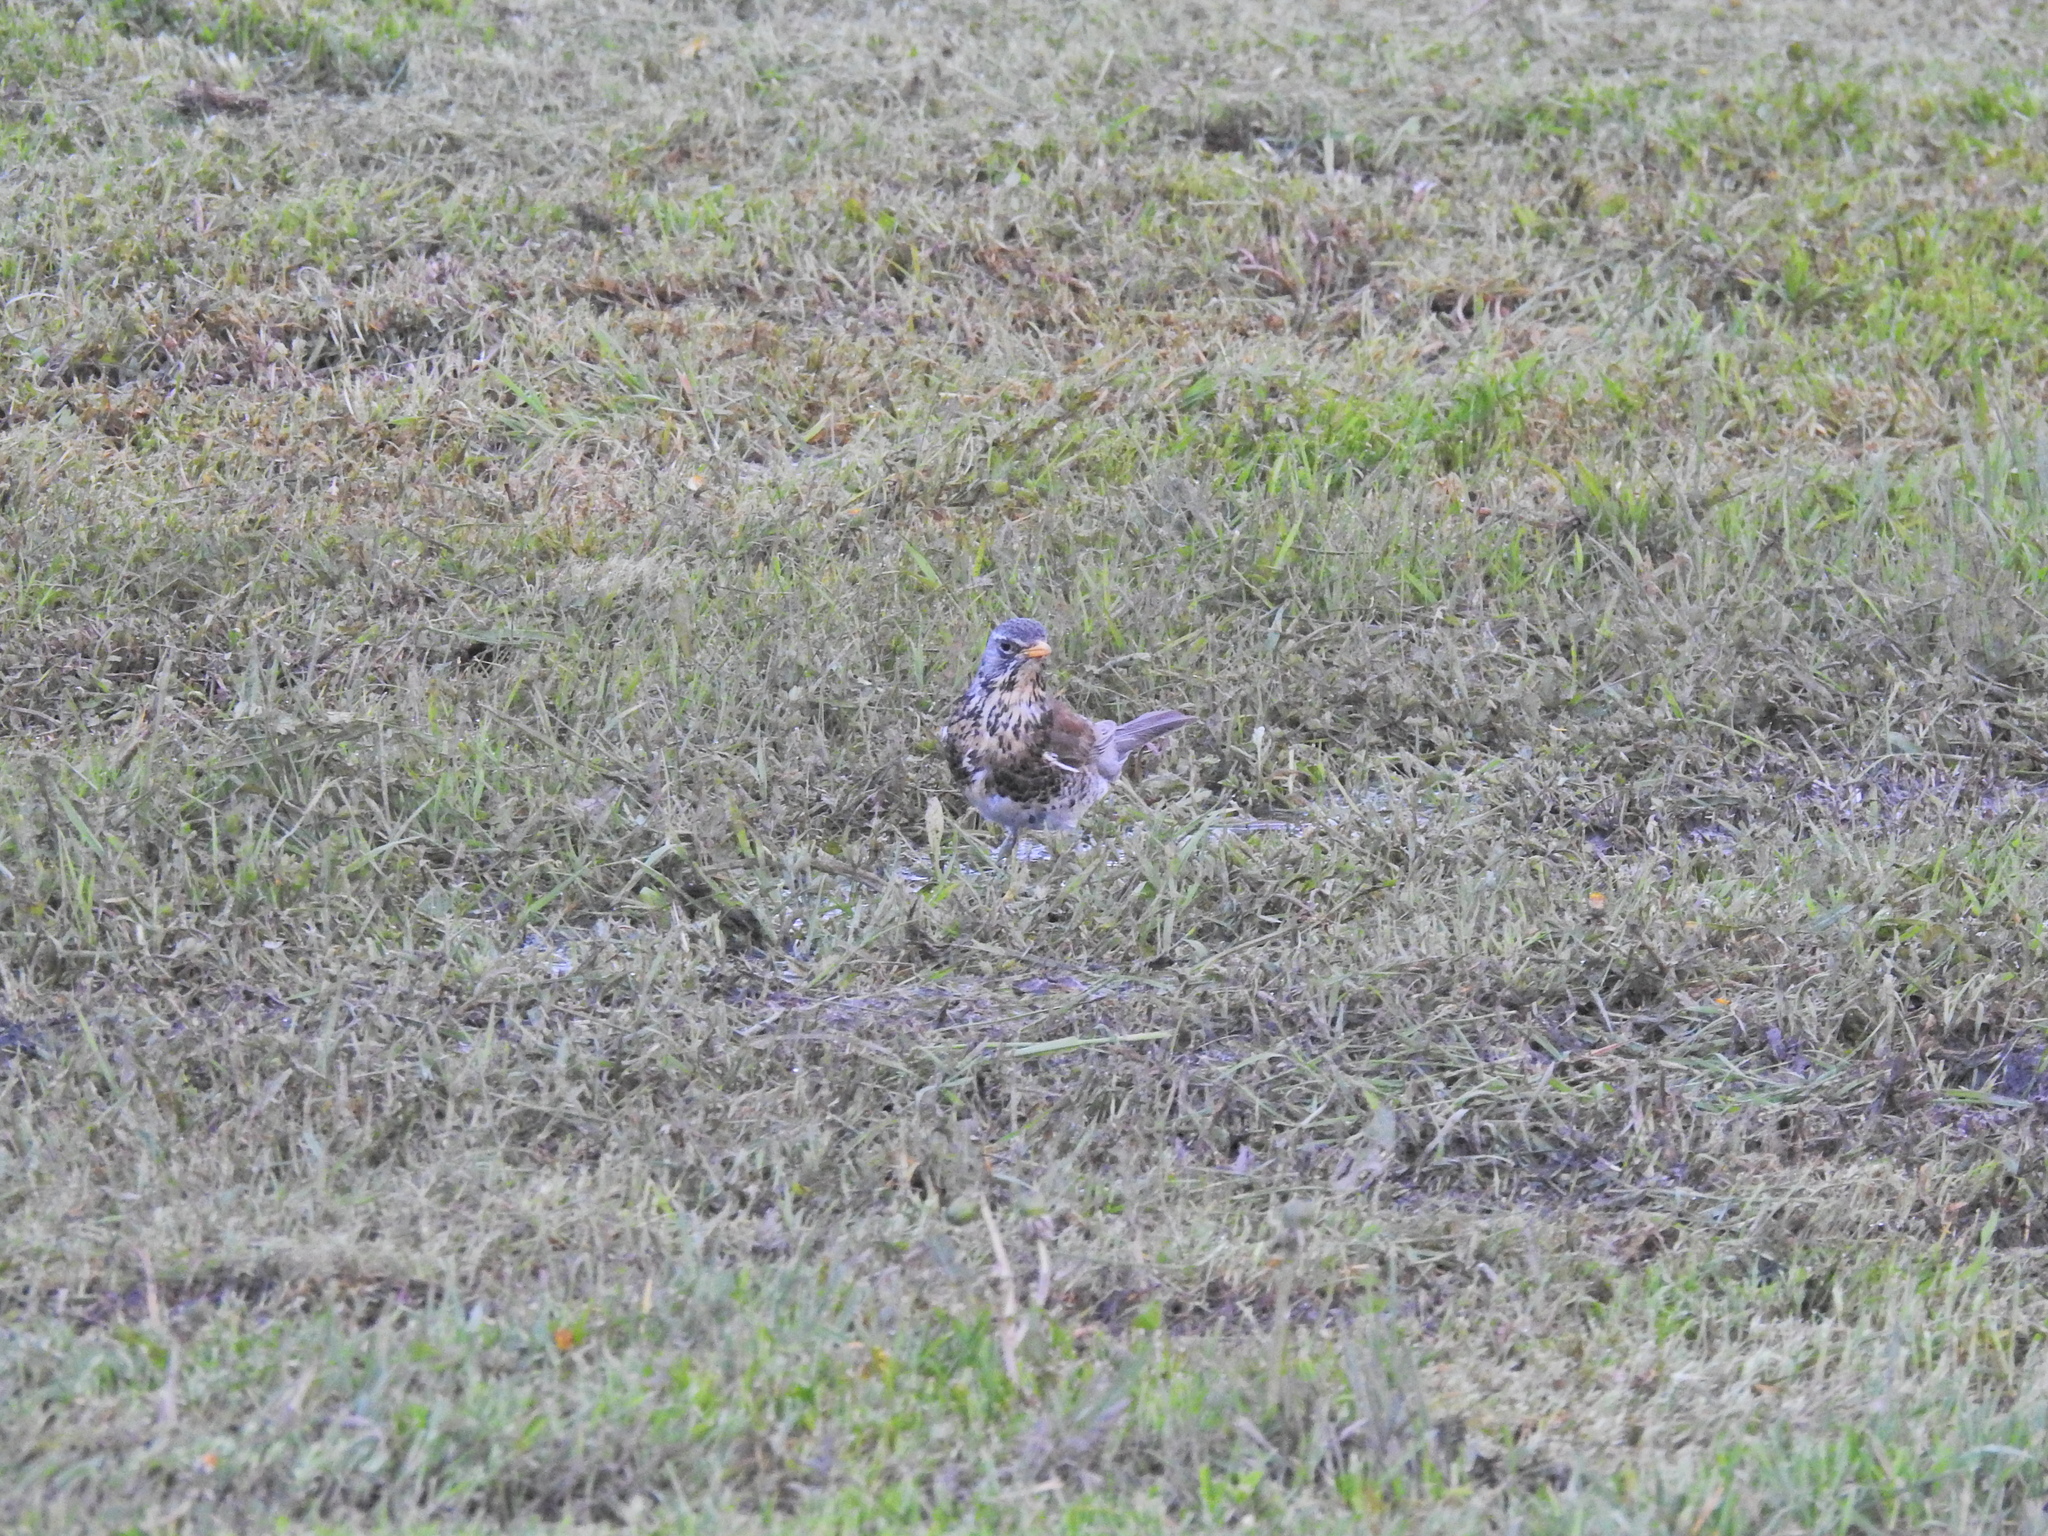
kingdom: Animalia
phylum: Chordata
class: Aves
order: Passeriformes
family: Turdidae
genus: Turdus
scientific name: Turdus pilaris
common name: Fieldfare
